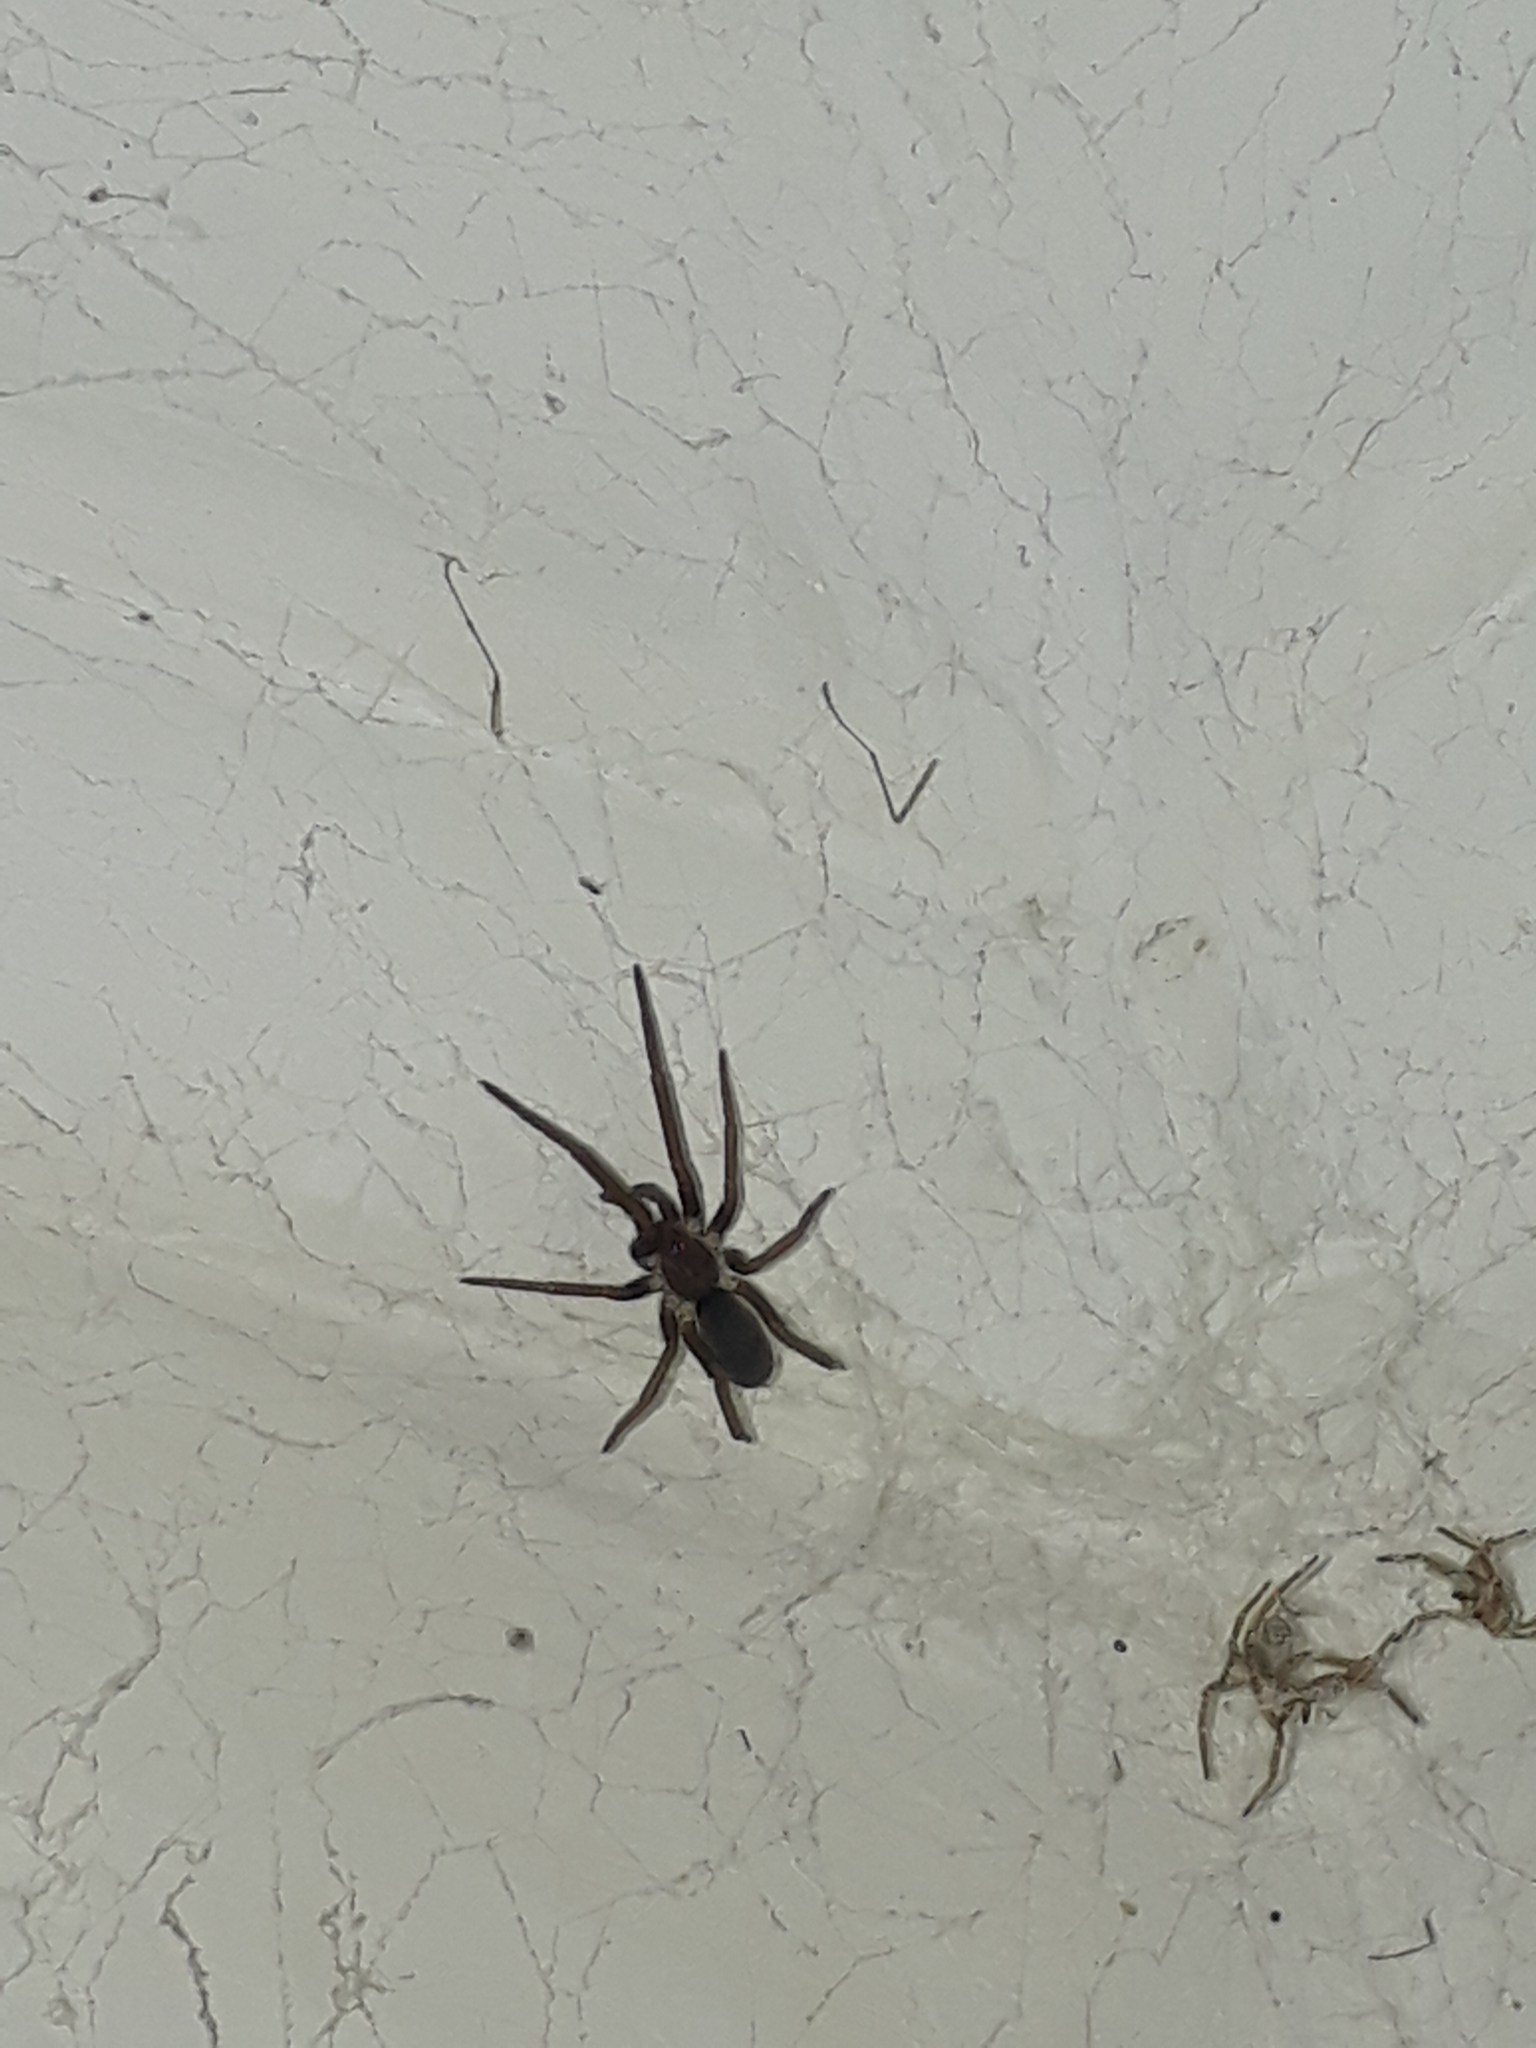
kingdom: Animalia
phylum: Arthropoda
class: Arachnida
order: Araneae
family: Filistatidae
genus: Kukulcania
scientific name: Kukulcania hibernalis
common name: Crevice weaver
